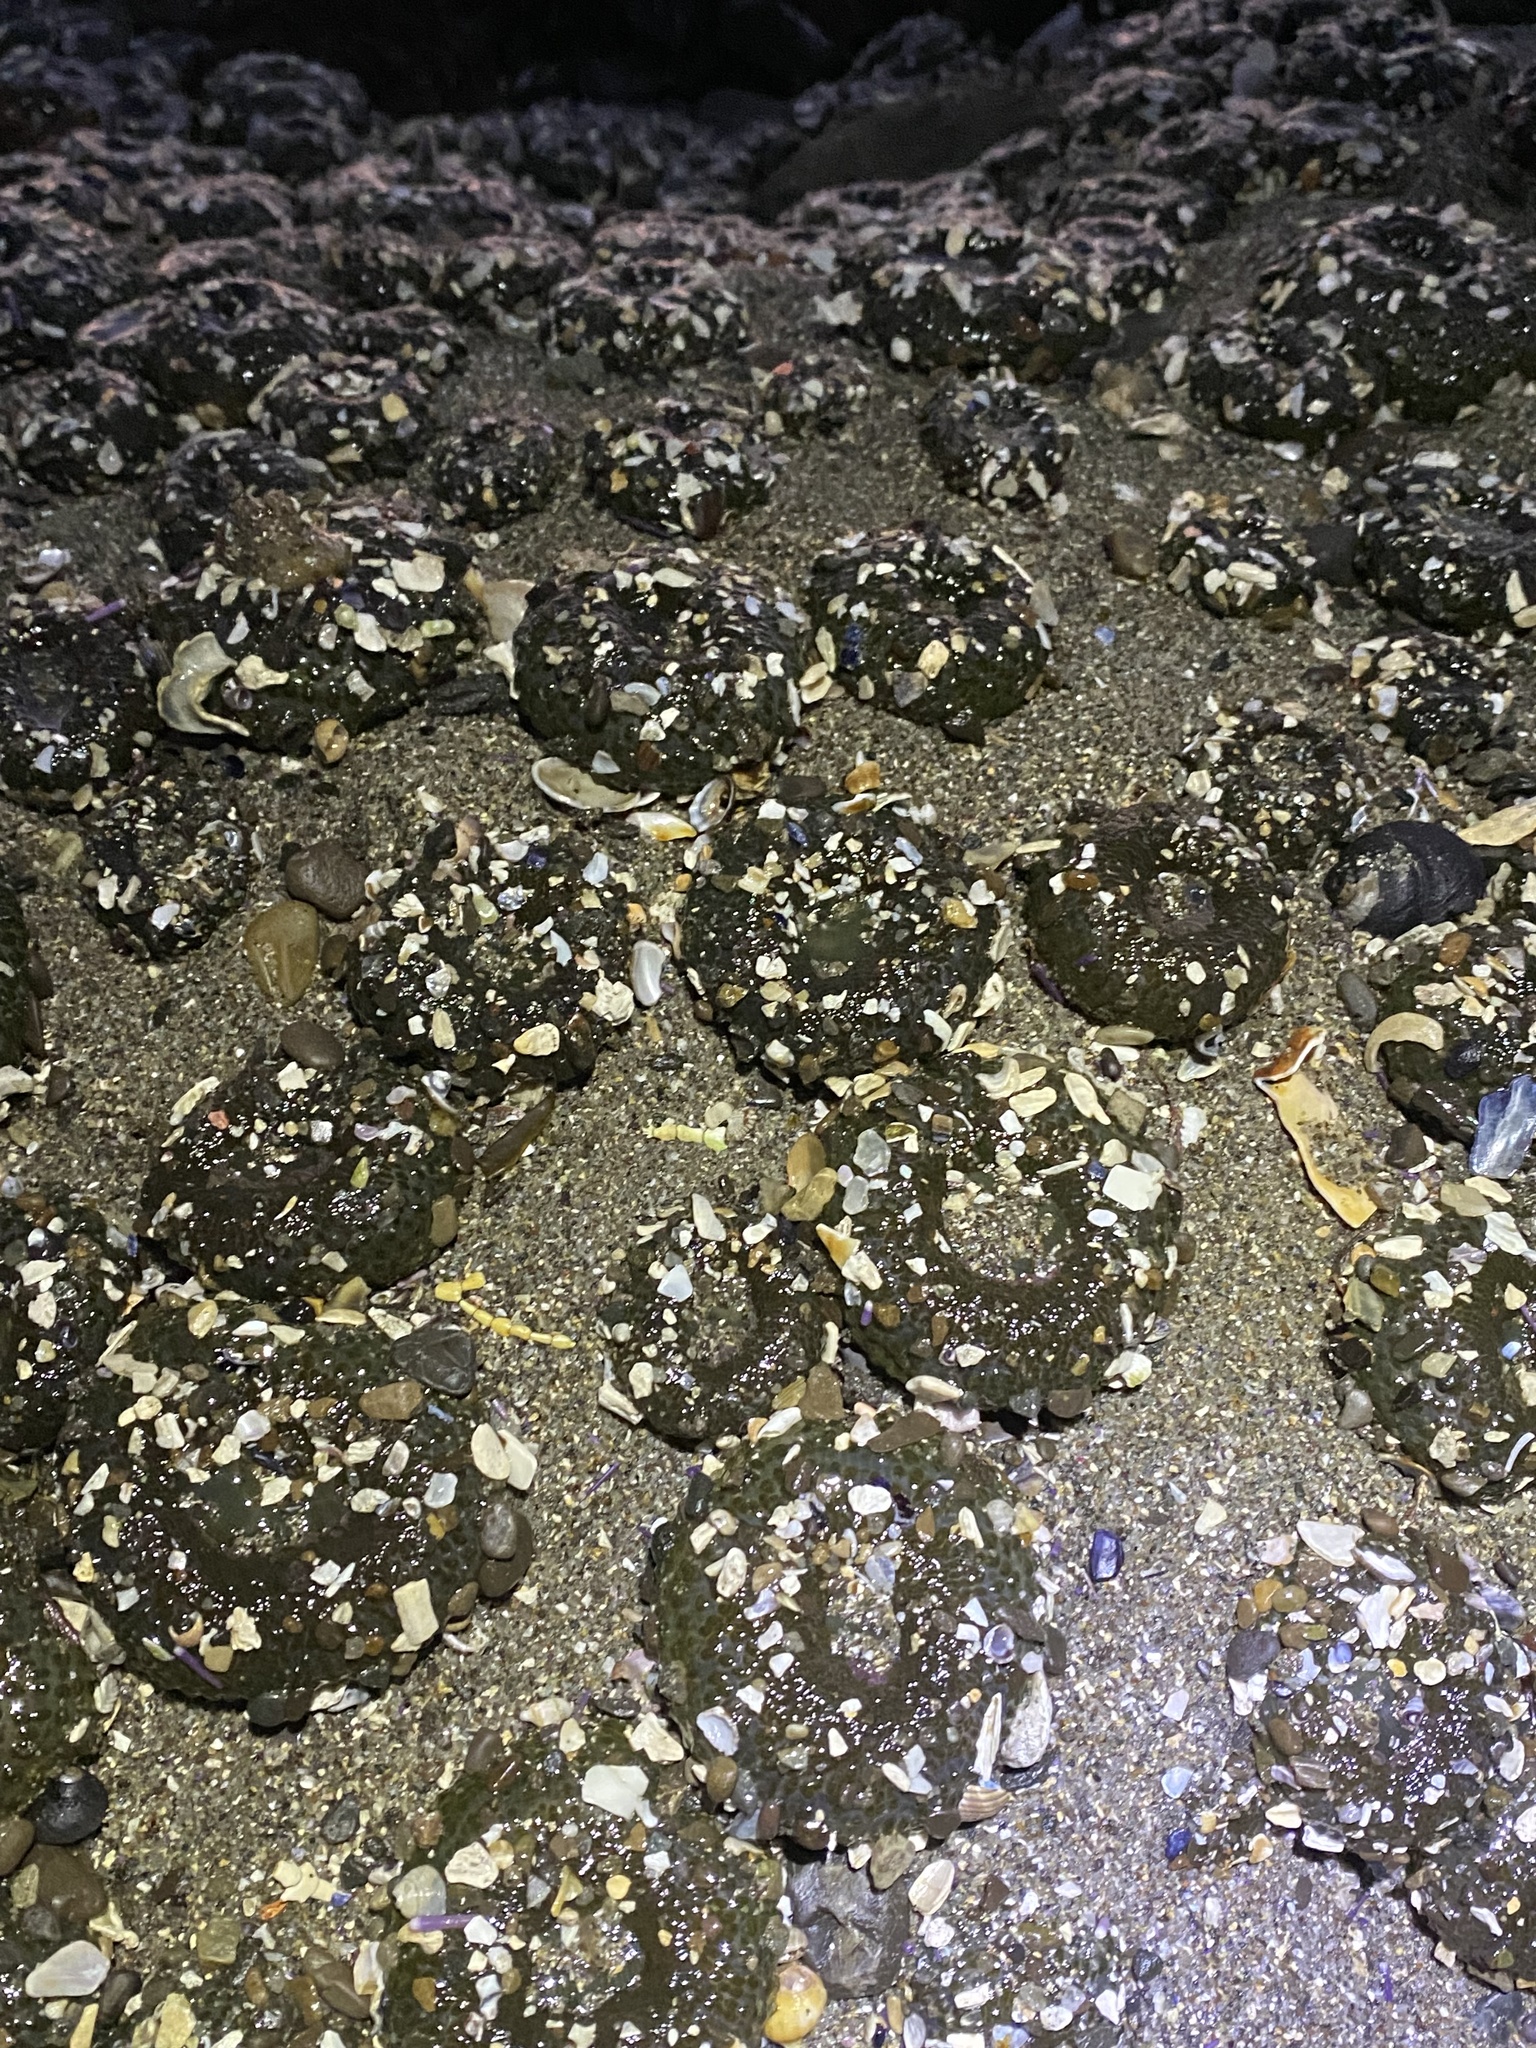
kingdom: Animalia
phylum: Cnidaria
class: Anthozoa
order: Actiniaria
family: Actiniidae
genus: Anthopleura
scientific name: Anthopleura elegantissima
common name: Clonal anemone
